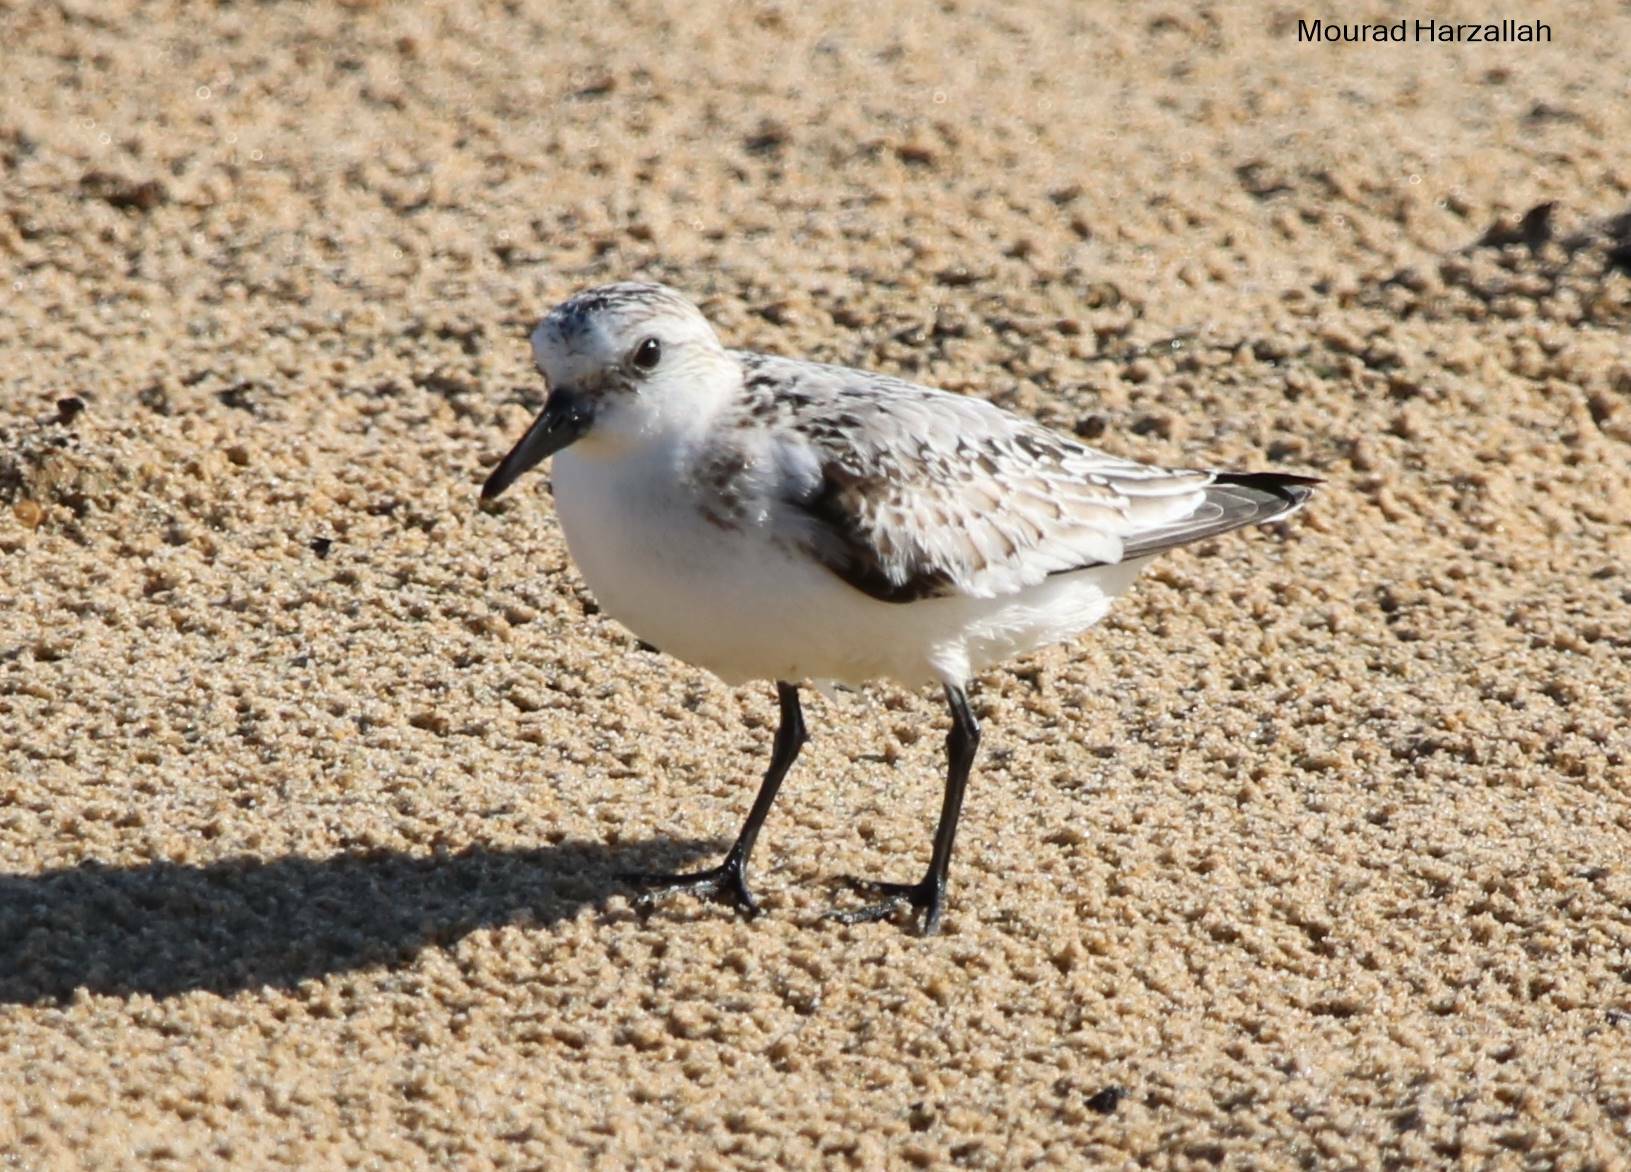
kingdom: Animalia
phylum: Chordata
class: Aves
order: Charadriiformes
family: Scolopacidae
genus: Calidris
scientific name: Calidris alba
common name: Sanderling
